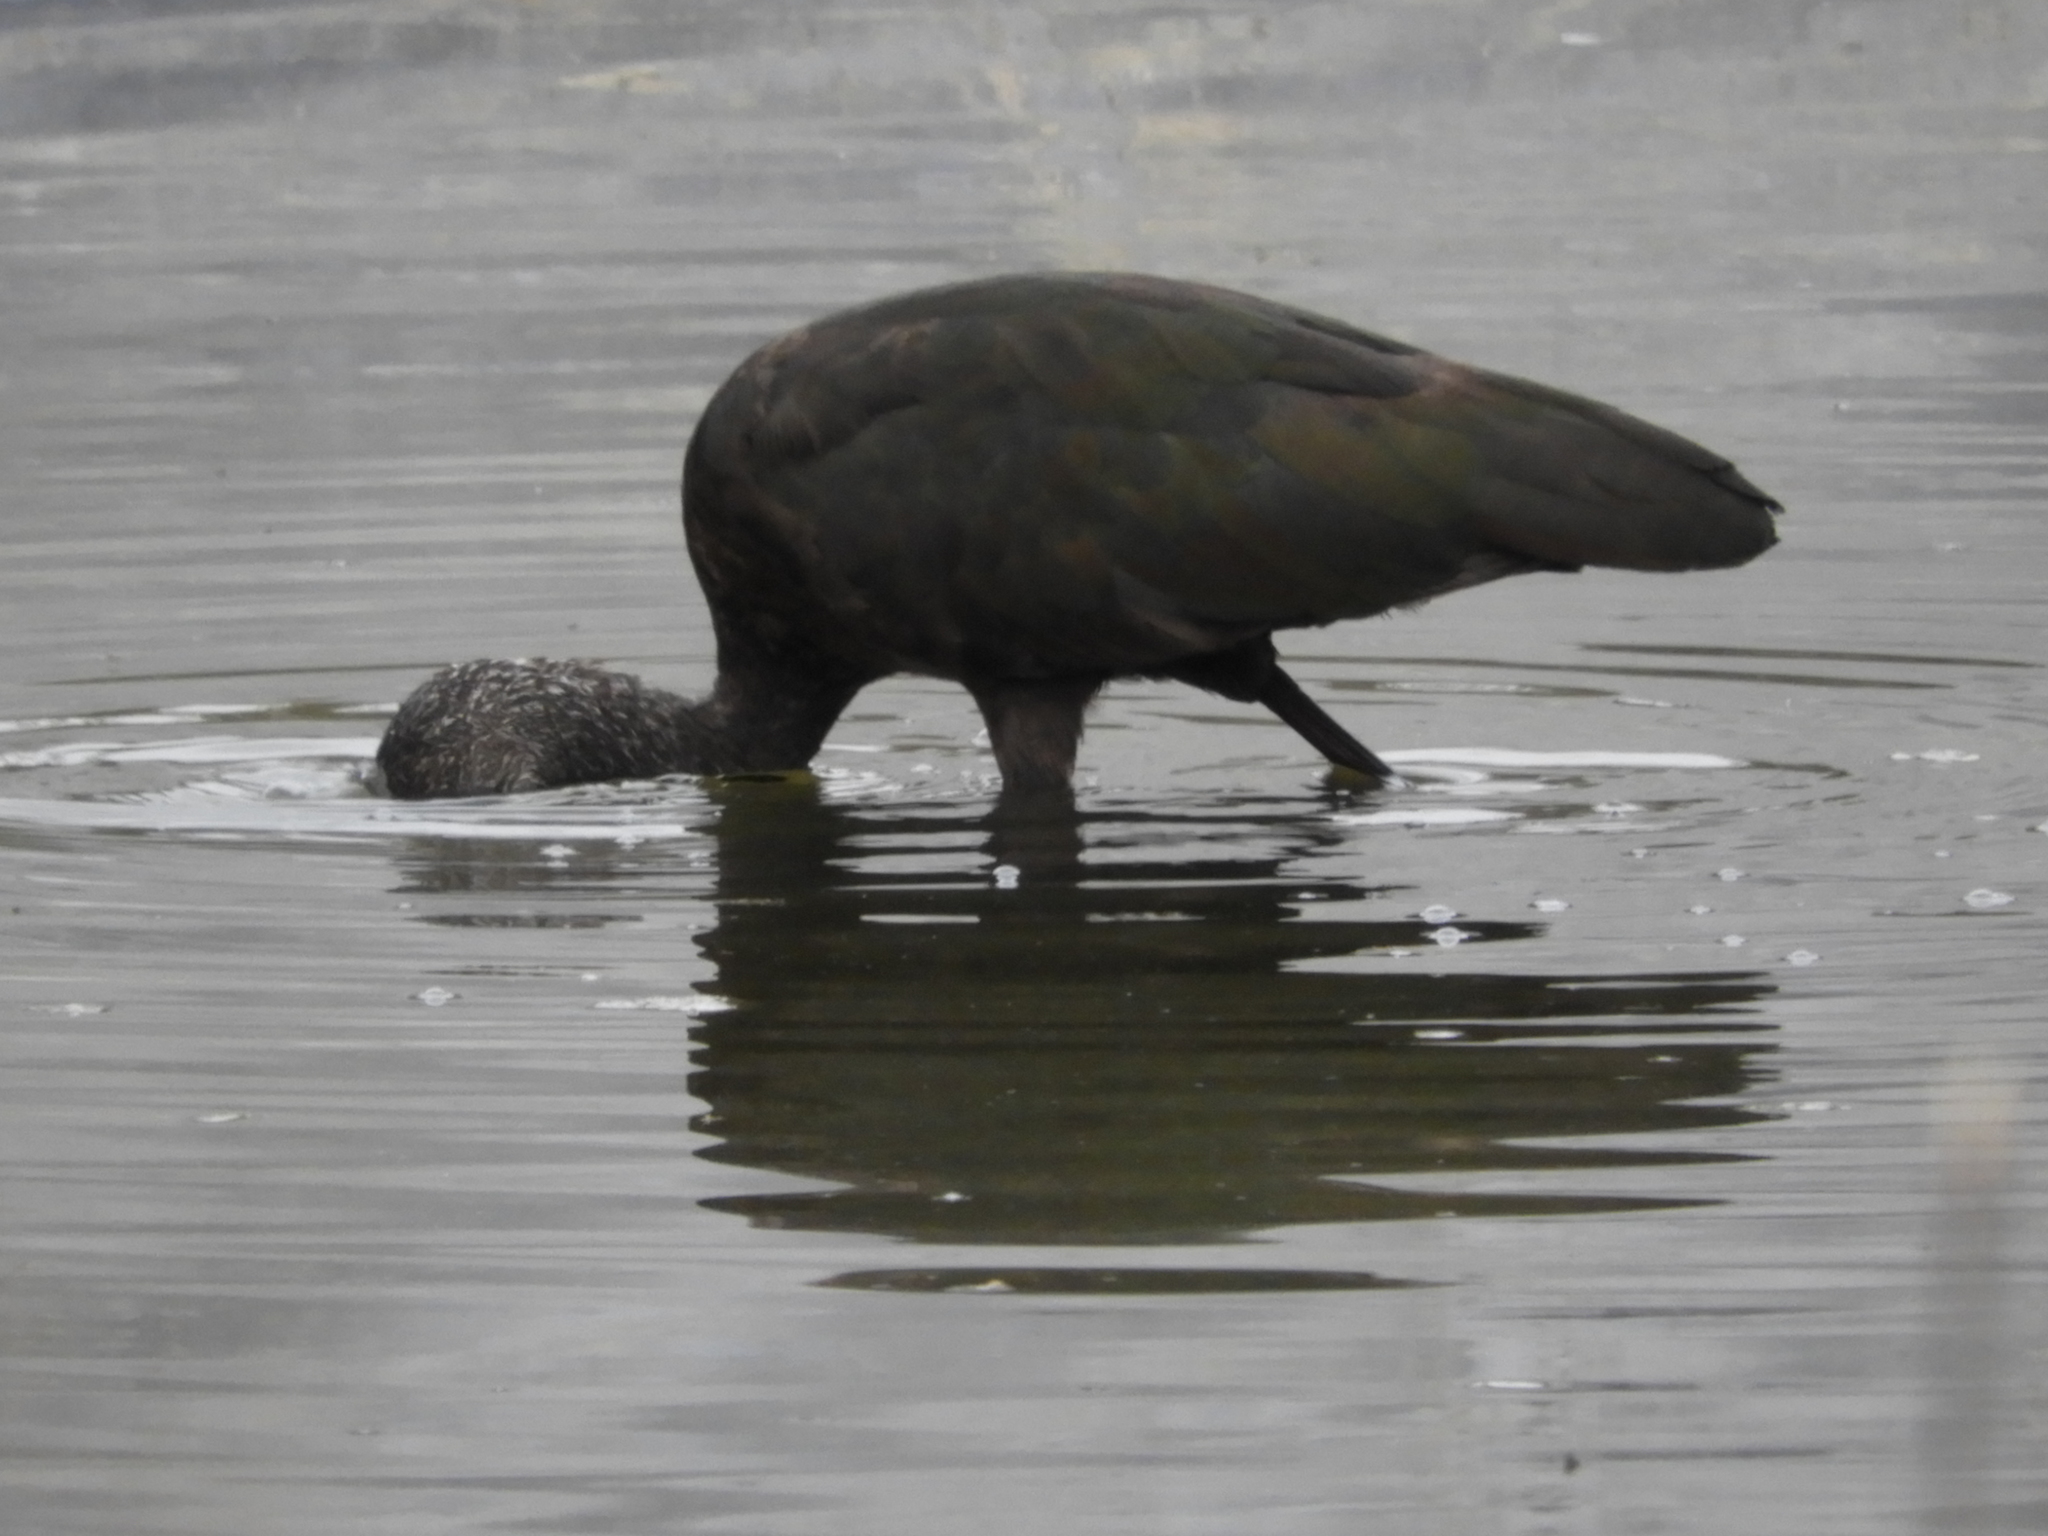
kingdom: Animalia
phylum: Chordata
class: Aves
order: Pelecaniformes
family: Threskiornithidae
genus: Plegadis
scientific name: Plegadis chihi
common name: White-faced ibis
